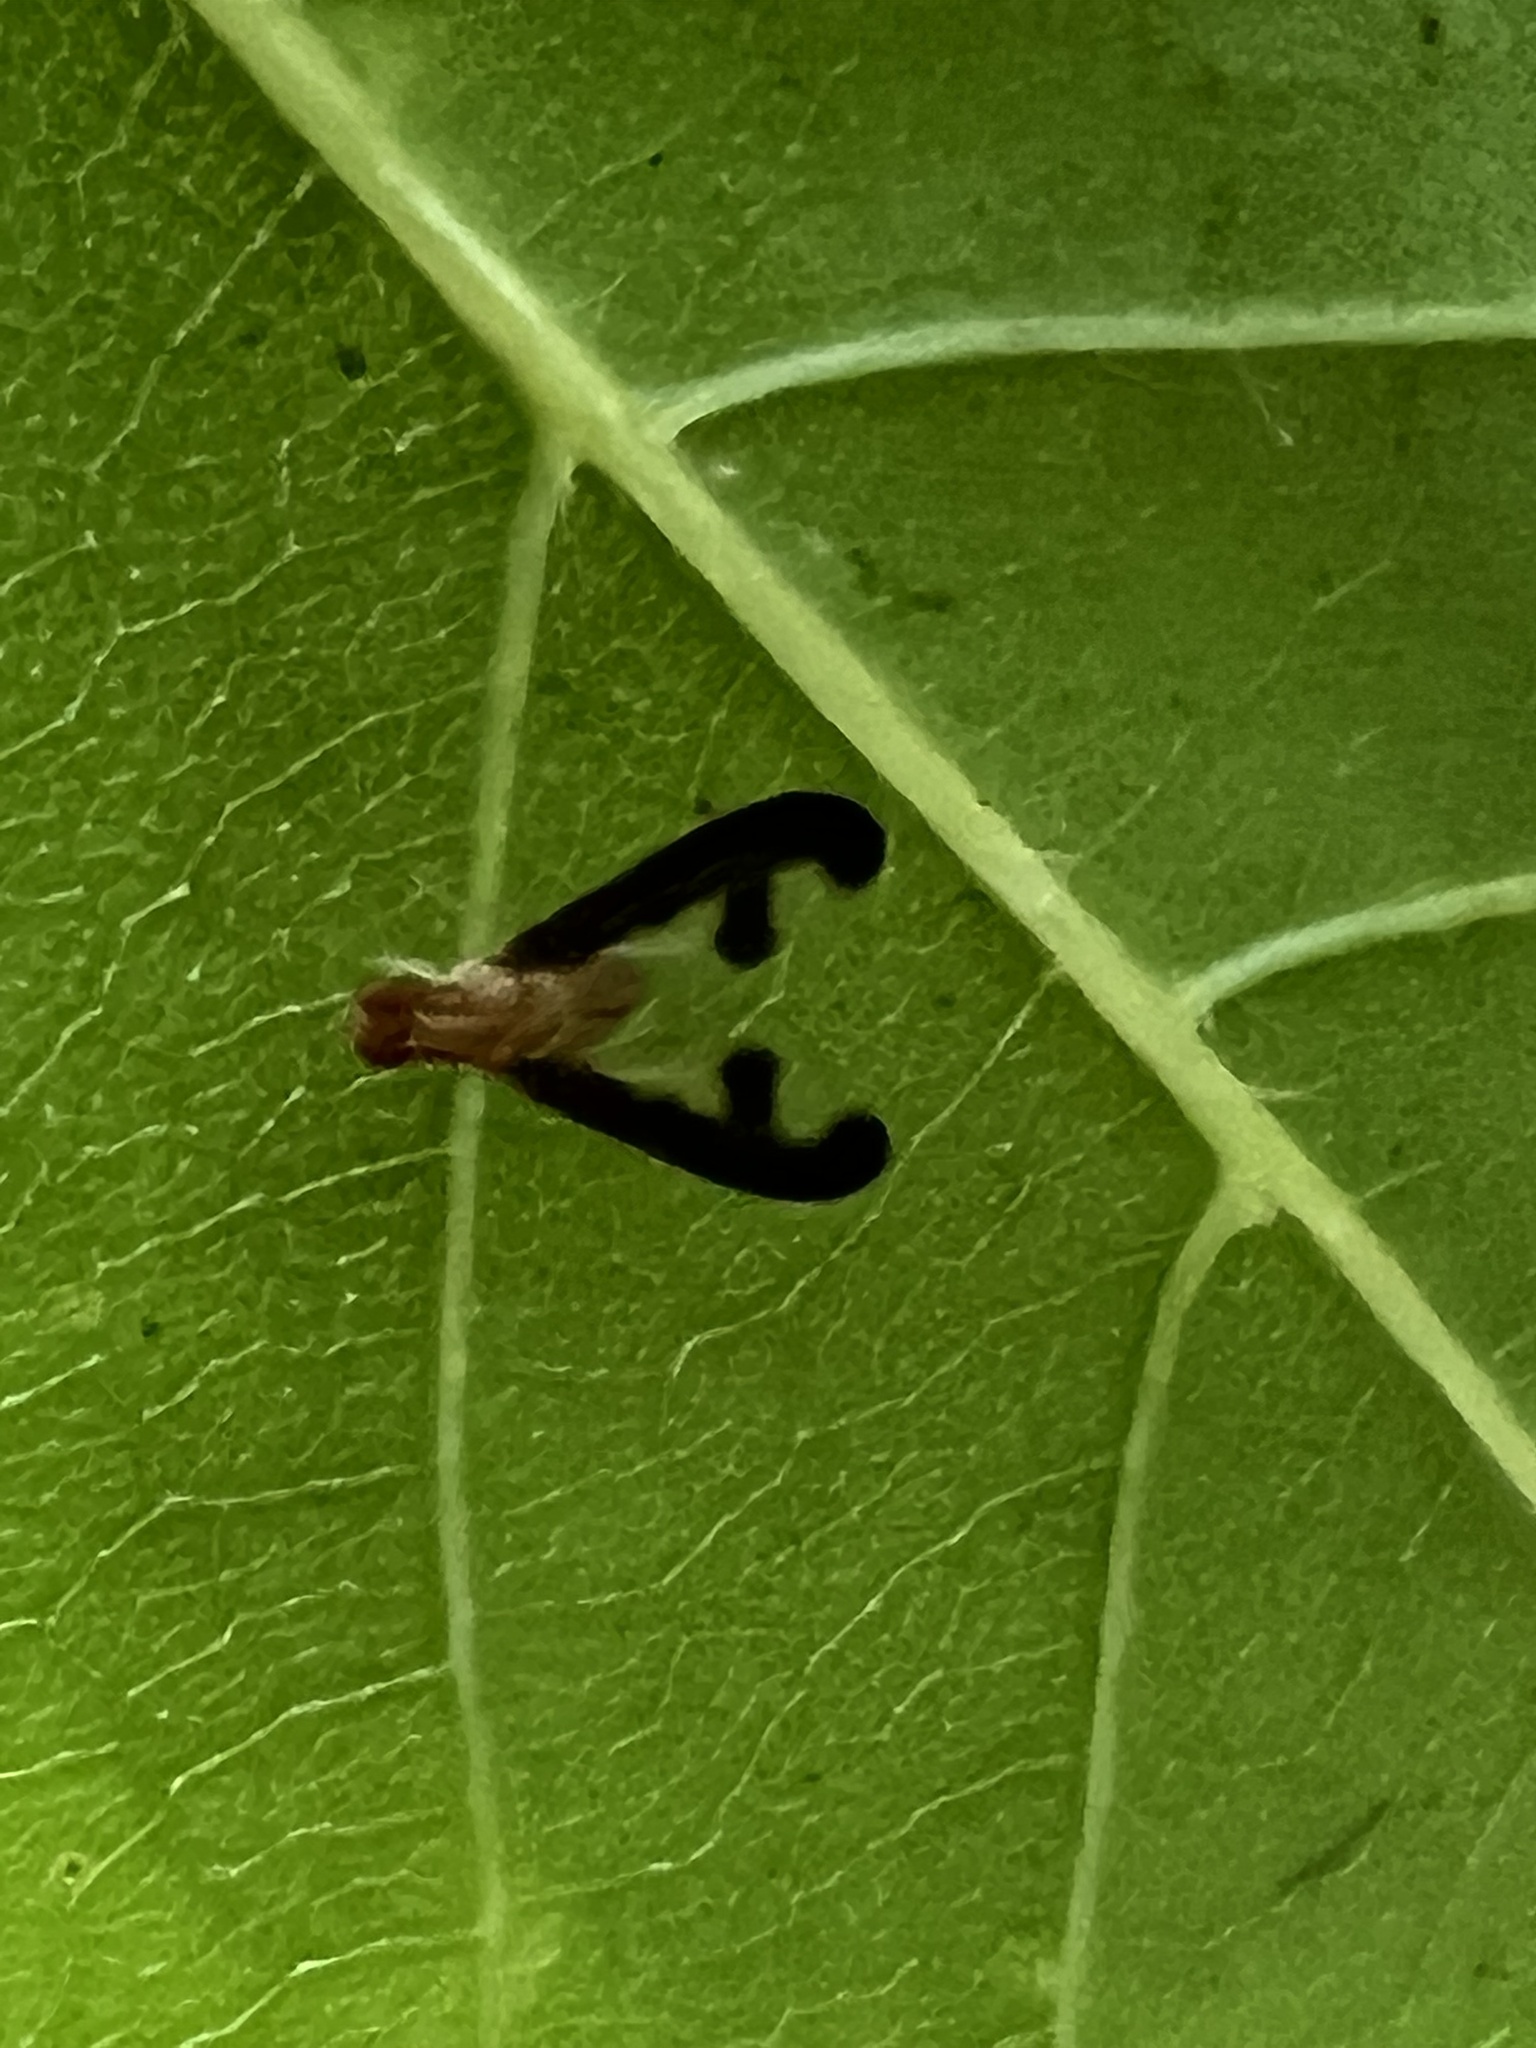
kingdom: Animalia
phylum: Arthropoda
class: Insecta
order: Diptera
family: Pallopteridae
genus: Toxonevra
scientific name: Toxonevra superba
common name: Antlered flutter fly
